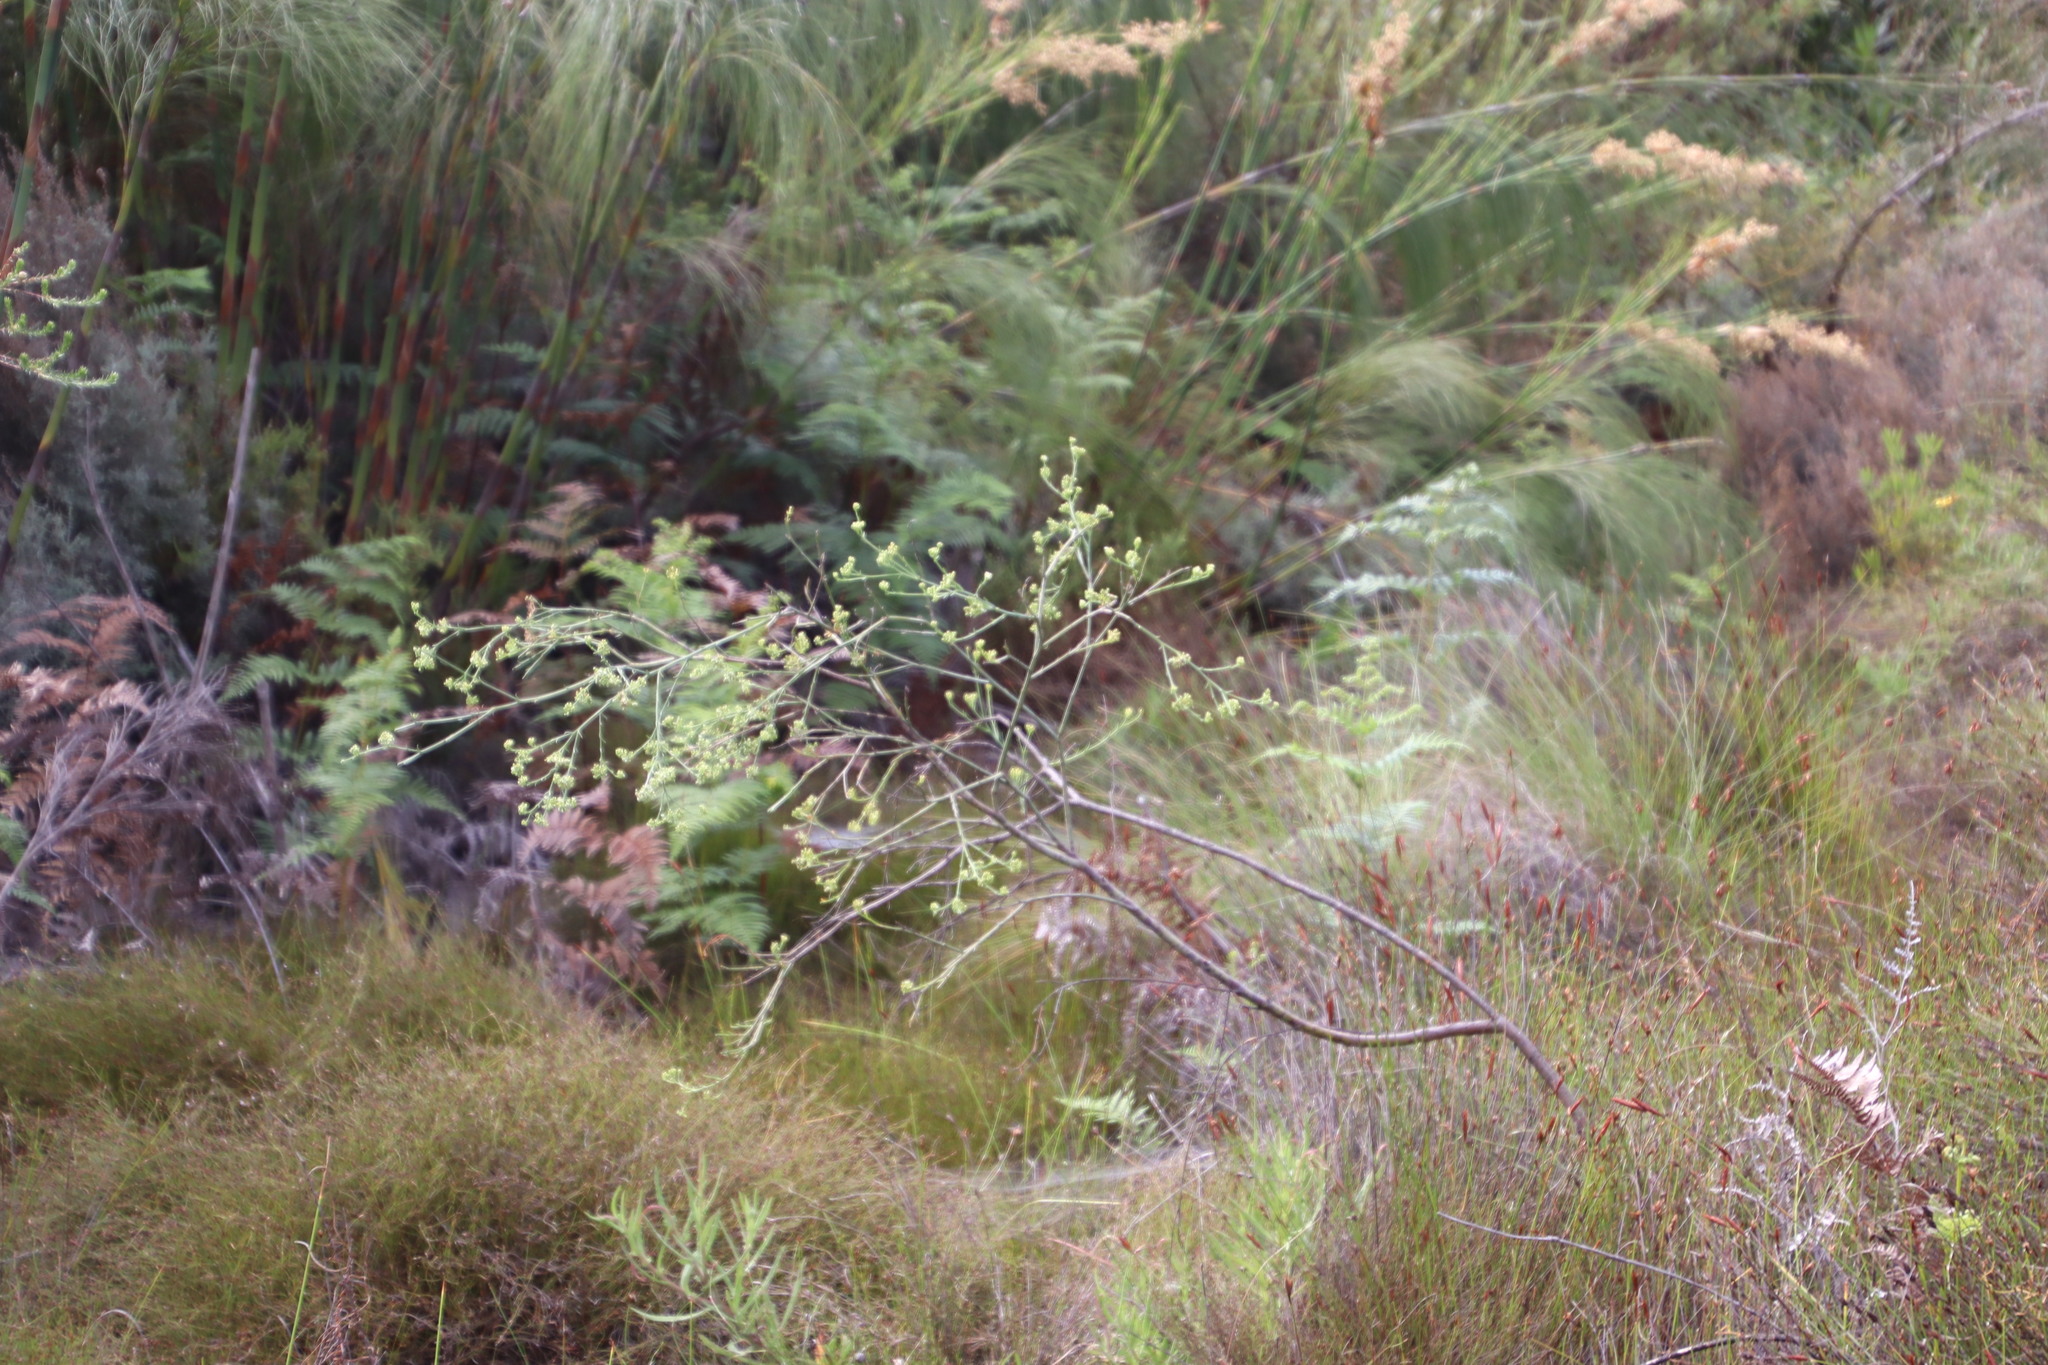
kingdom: Plantae
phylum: Tracheophyta
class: Magnoliopsida
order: Santalales
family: Thesiaceae
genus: Thesium
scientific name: Thesium strictum
